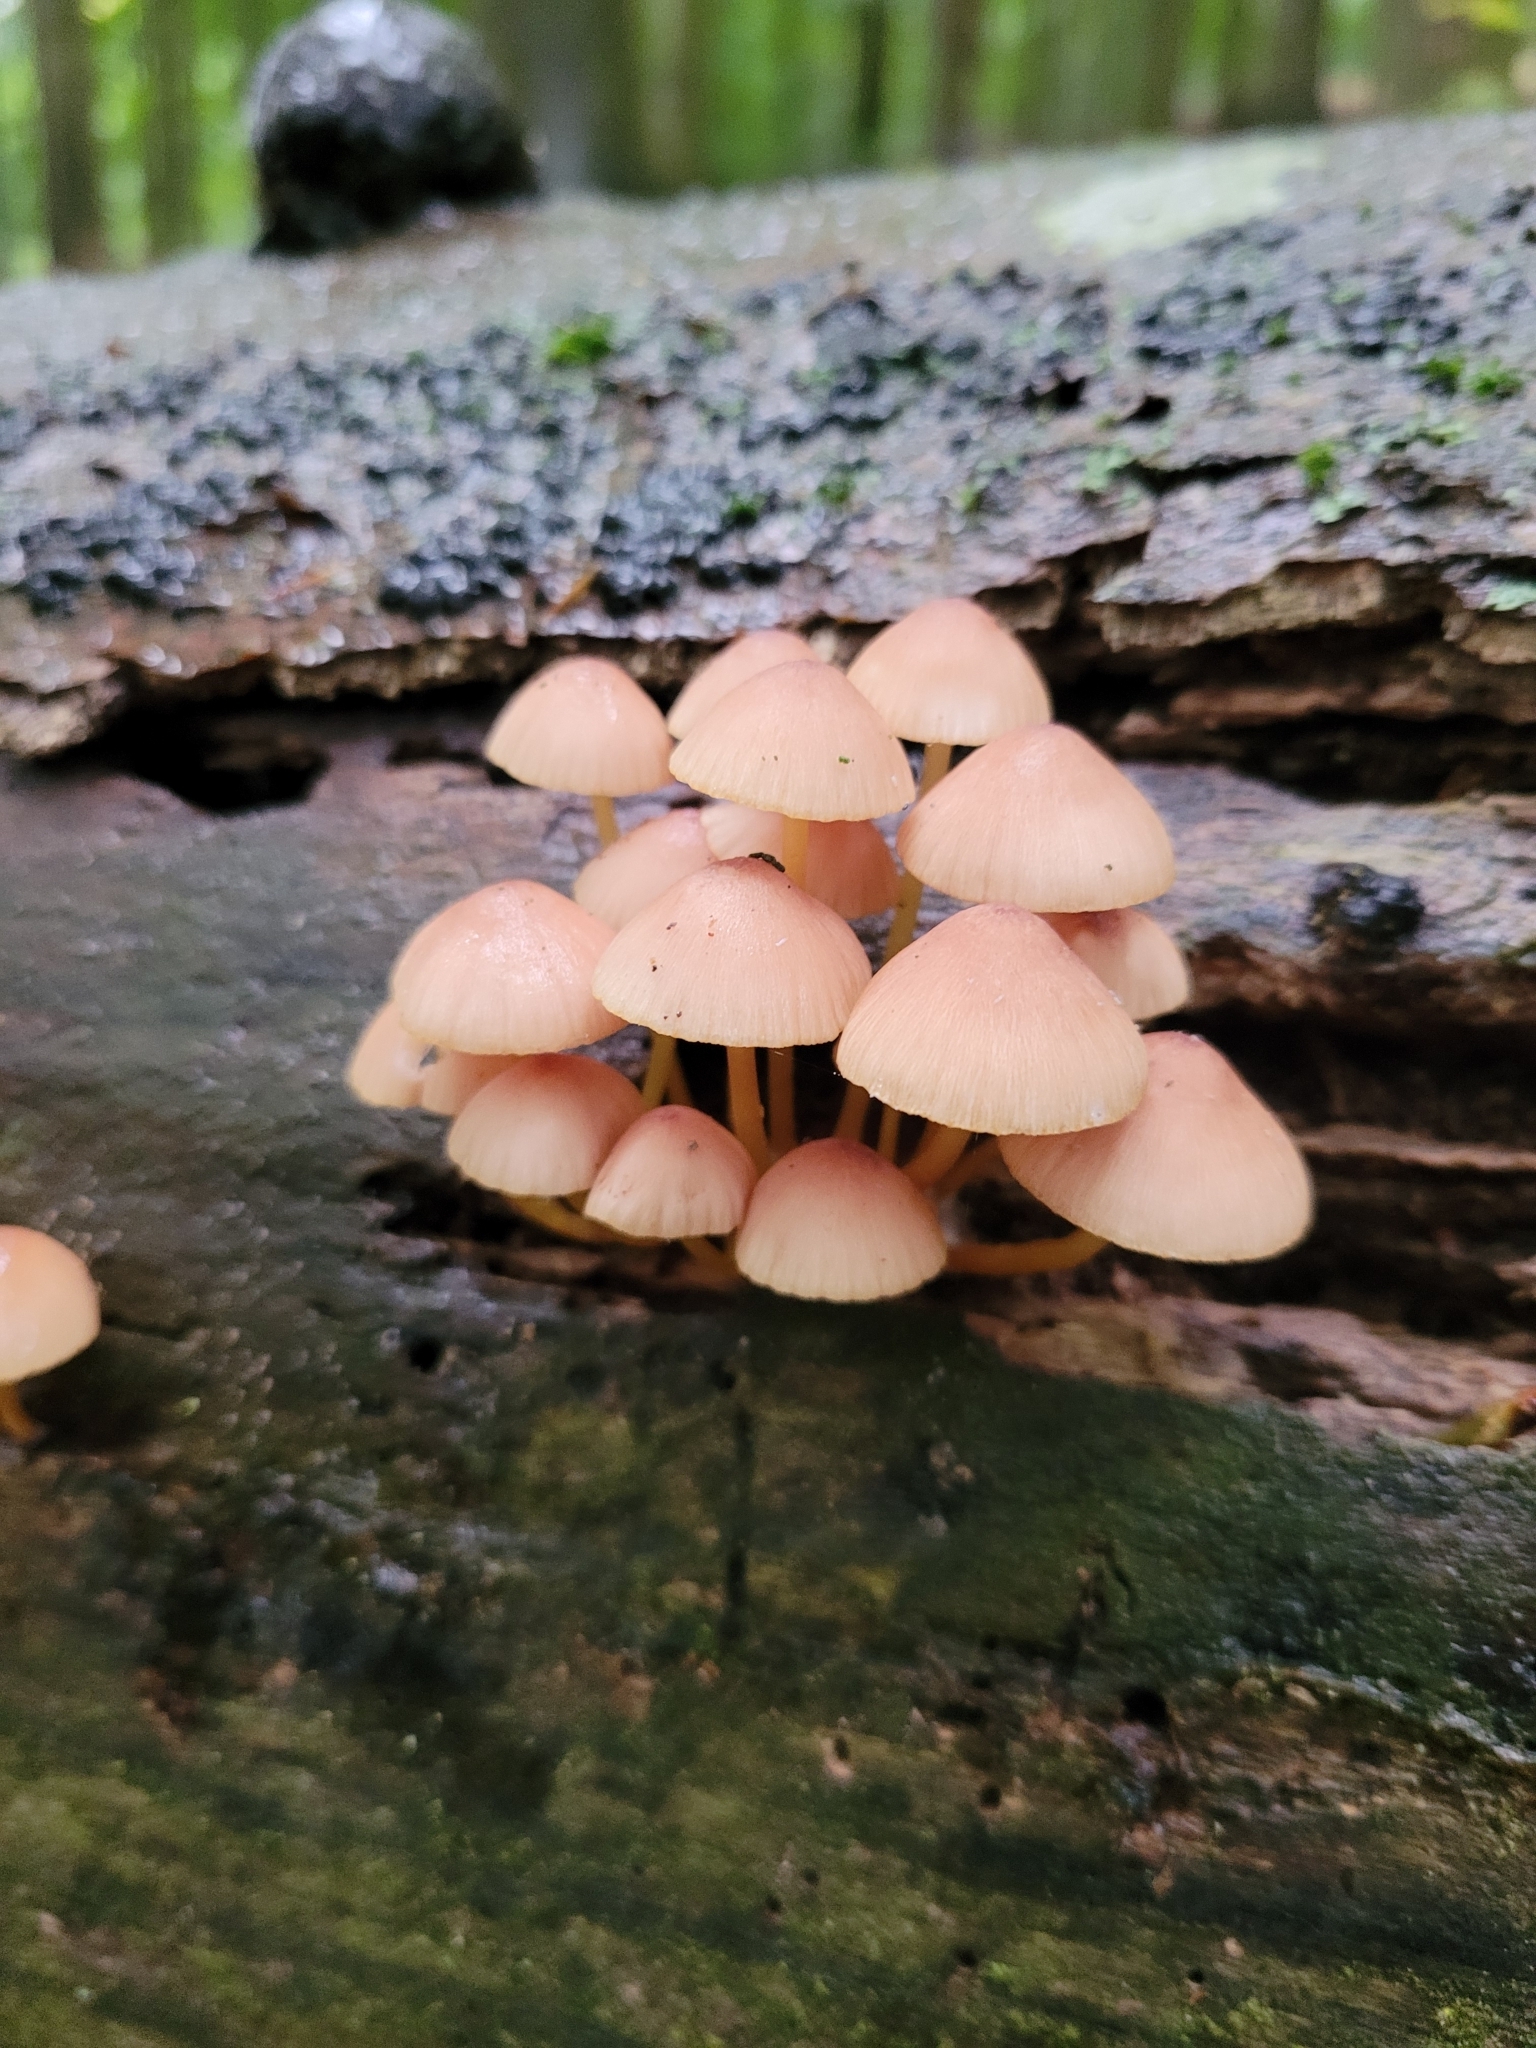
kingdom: Fungi
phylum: Basidiomycota
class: Agaricomycetes
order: Agaricales
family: Mycenaceae
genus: Mycena
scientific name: Mycena renati
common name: Beautiful bonnet
